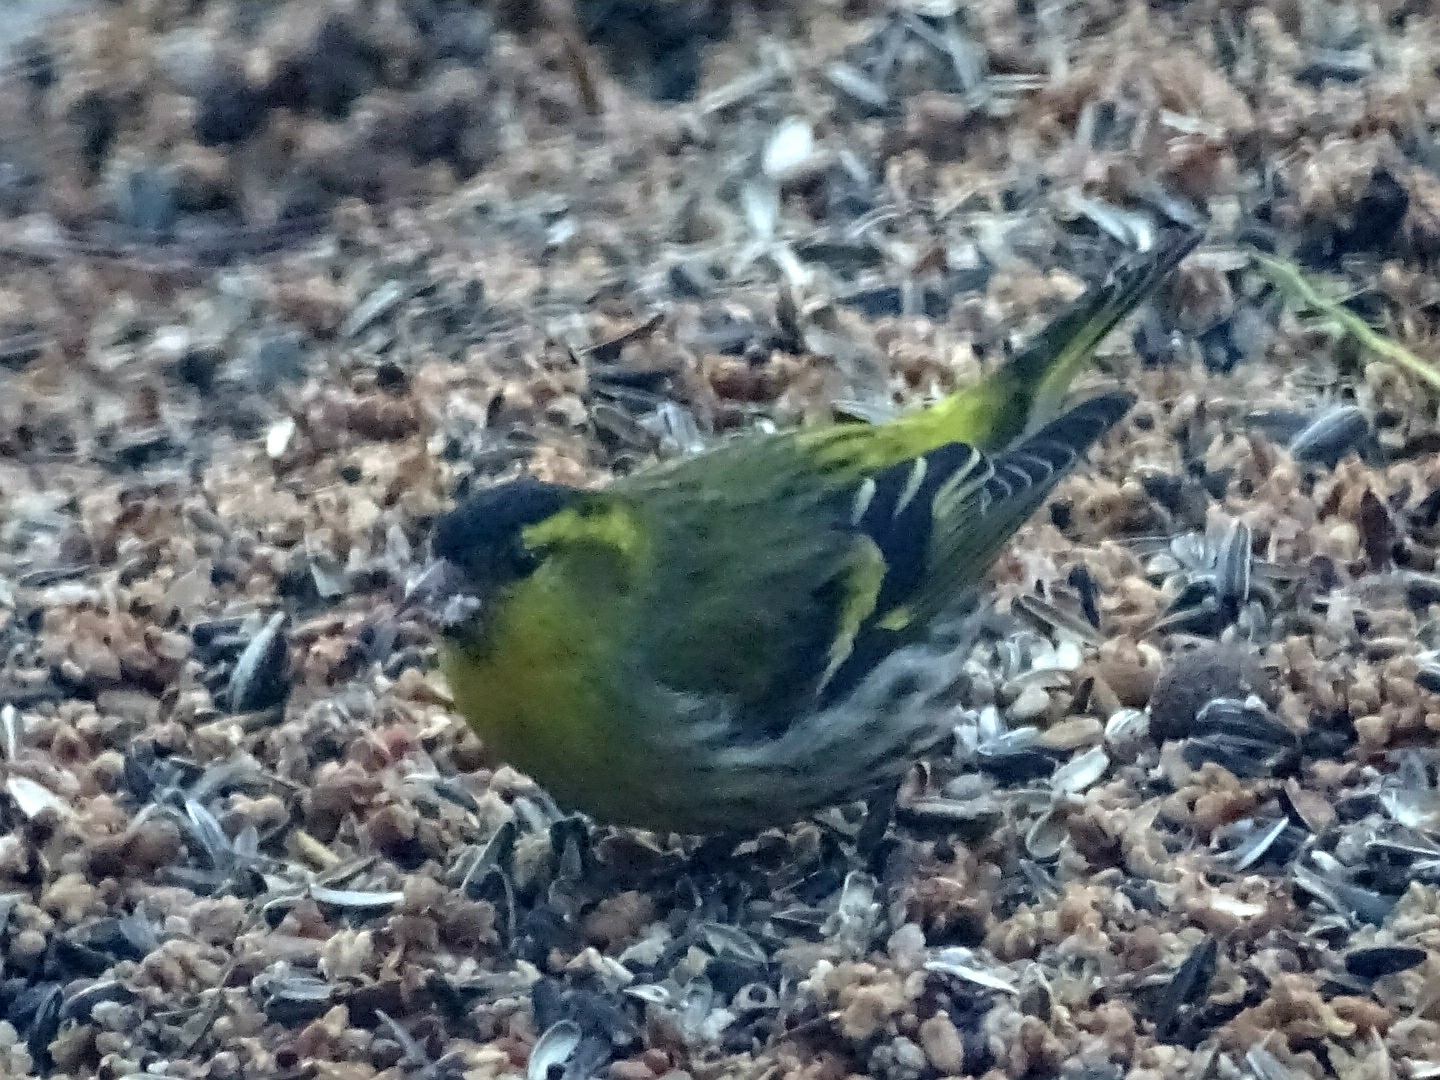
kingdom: Animalia
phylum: Chordata
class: Aves
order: Passeriformes
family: Fringillidae
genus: Spinus
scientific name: Spinus spinus
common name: Eurasian siskin
